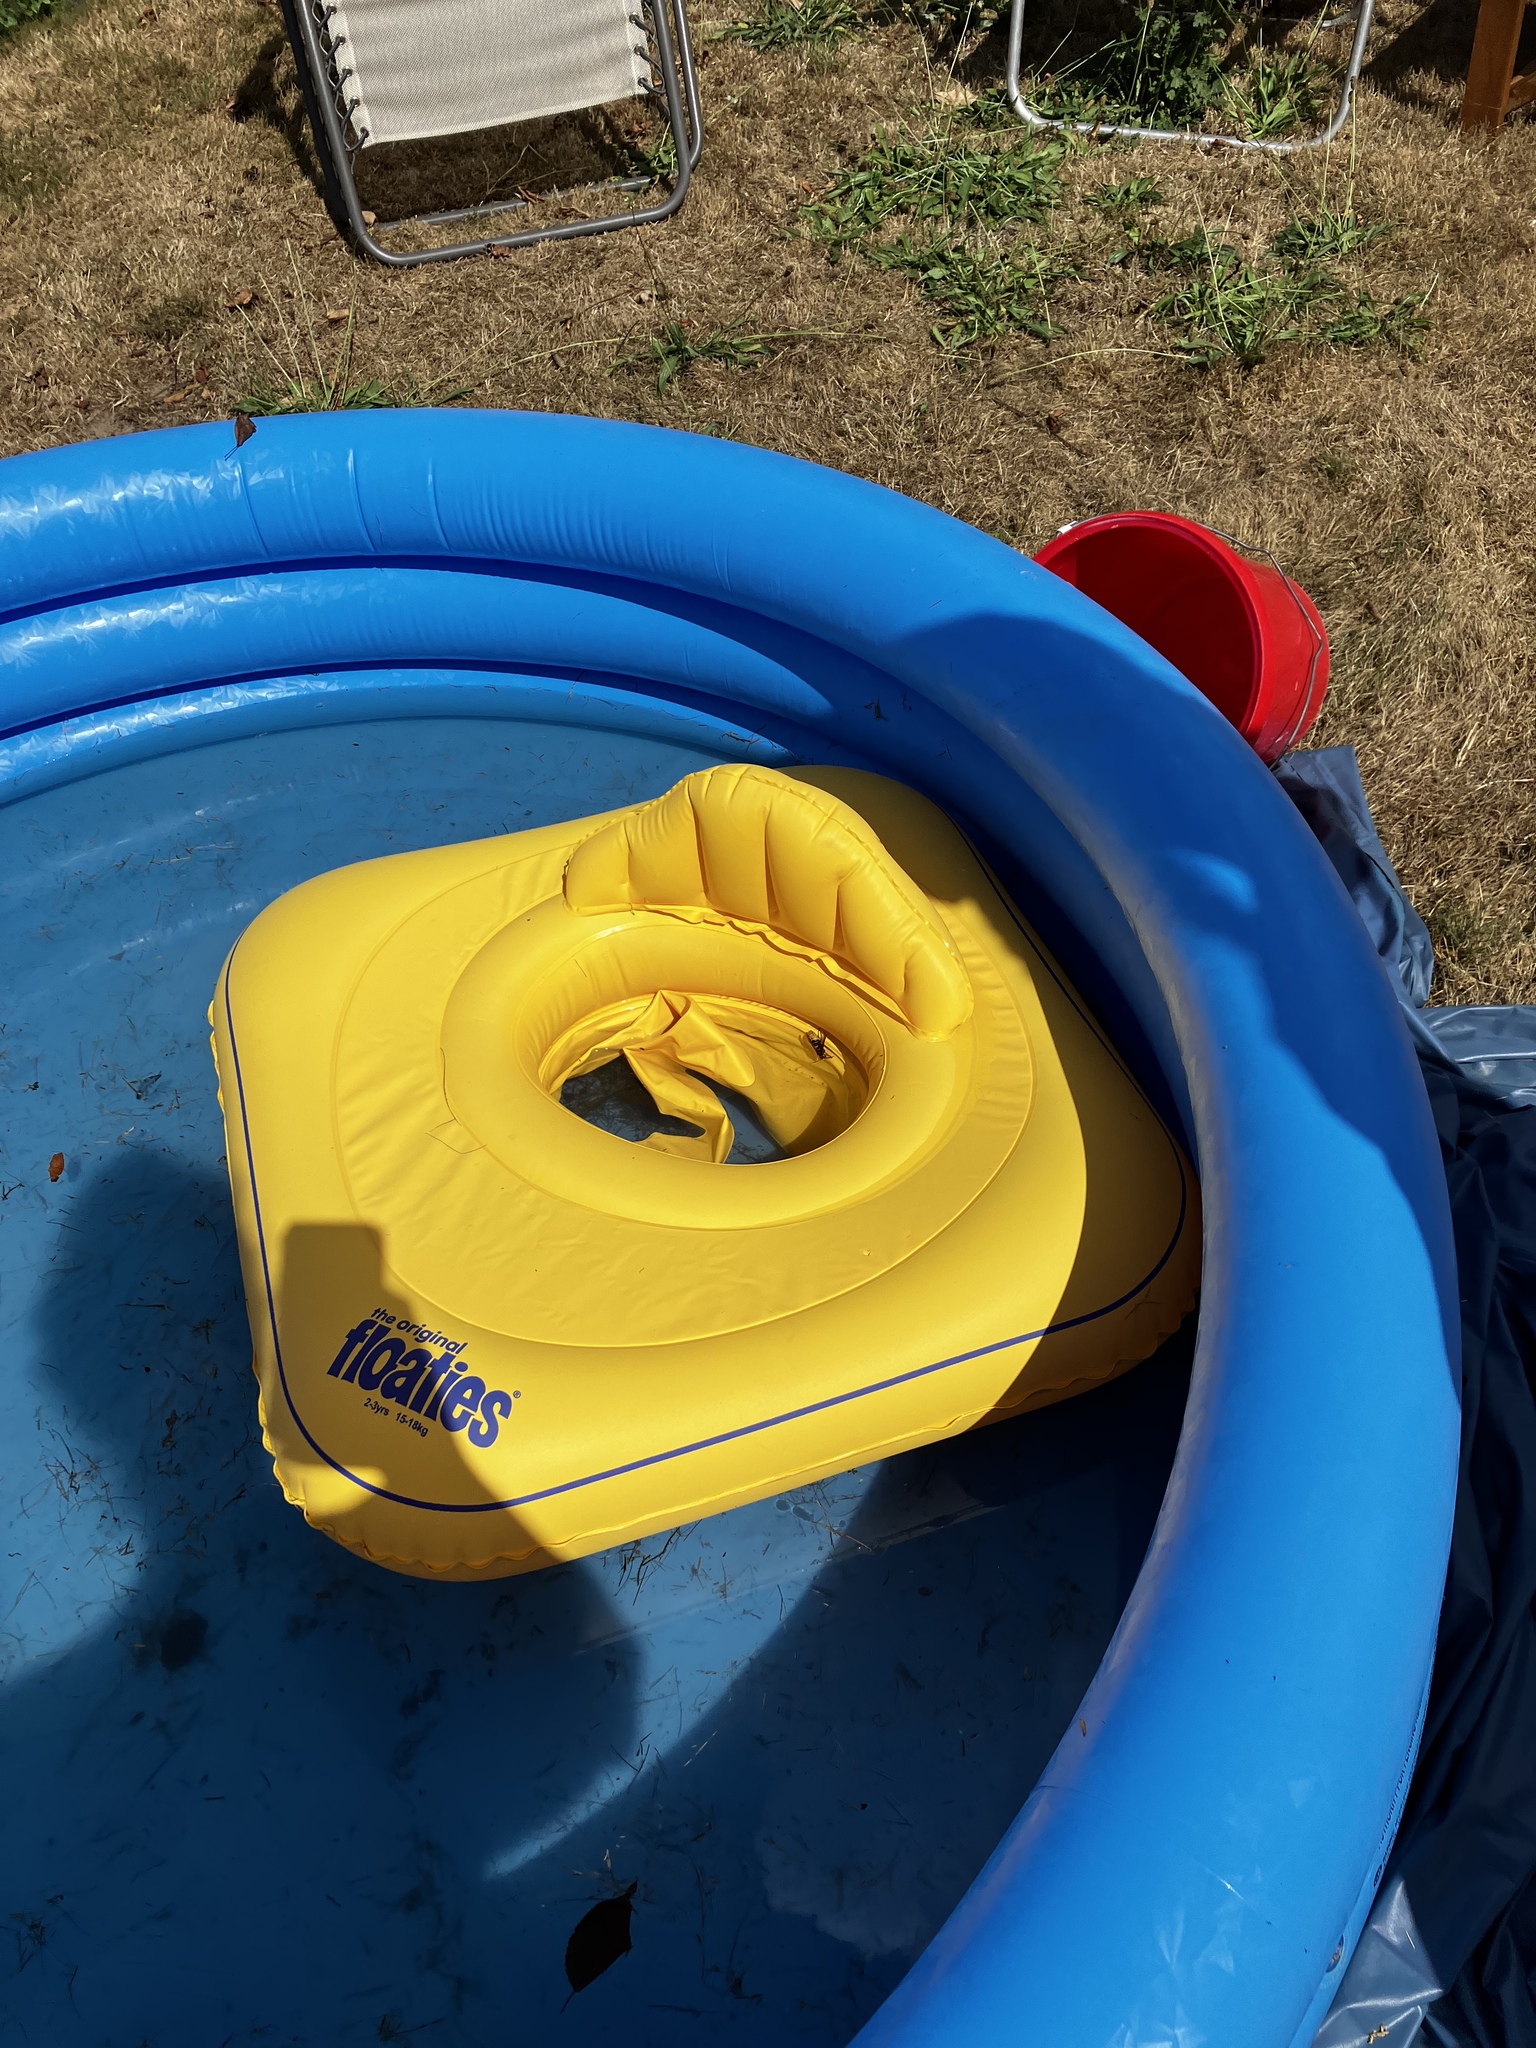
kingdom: Animalia
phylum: Arthropoda
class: Insecta
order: Hymenoptera
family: Vespidae
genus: Vespa
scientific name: Vespa crabro
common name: Hornet
